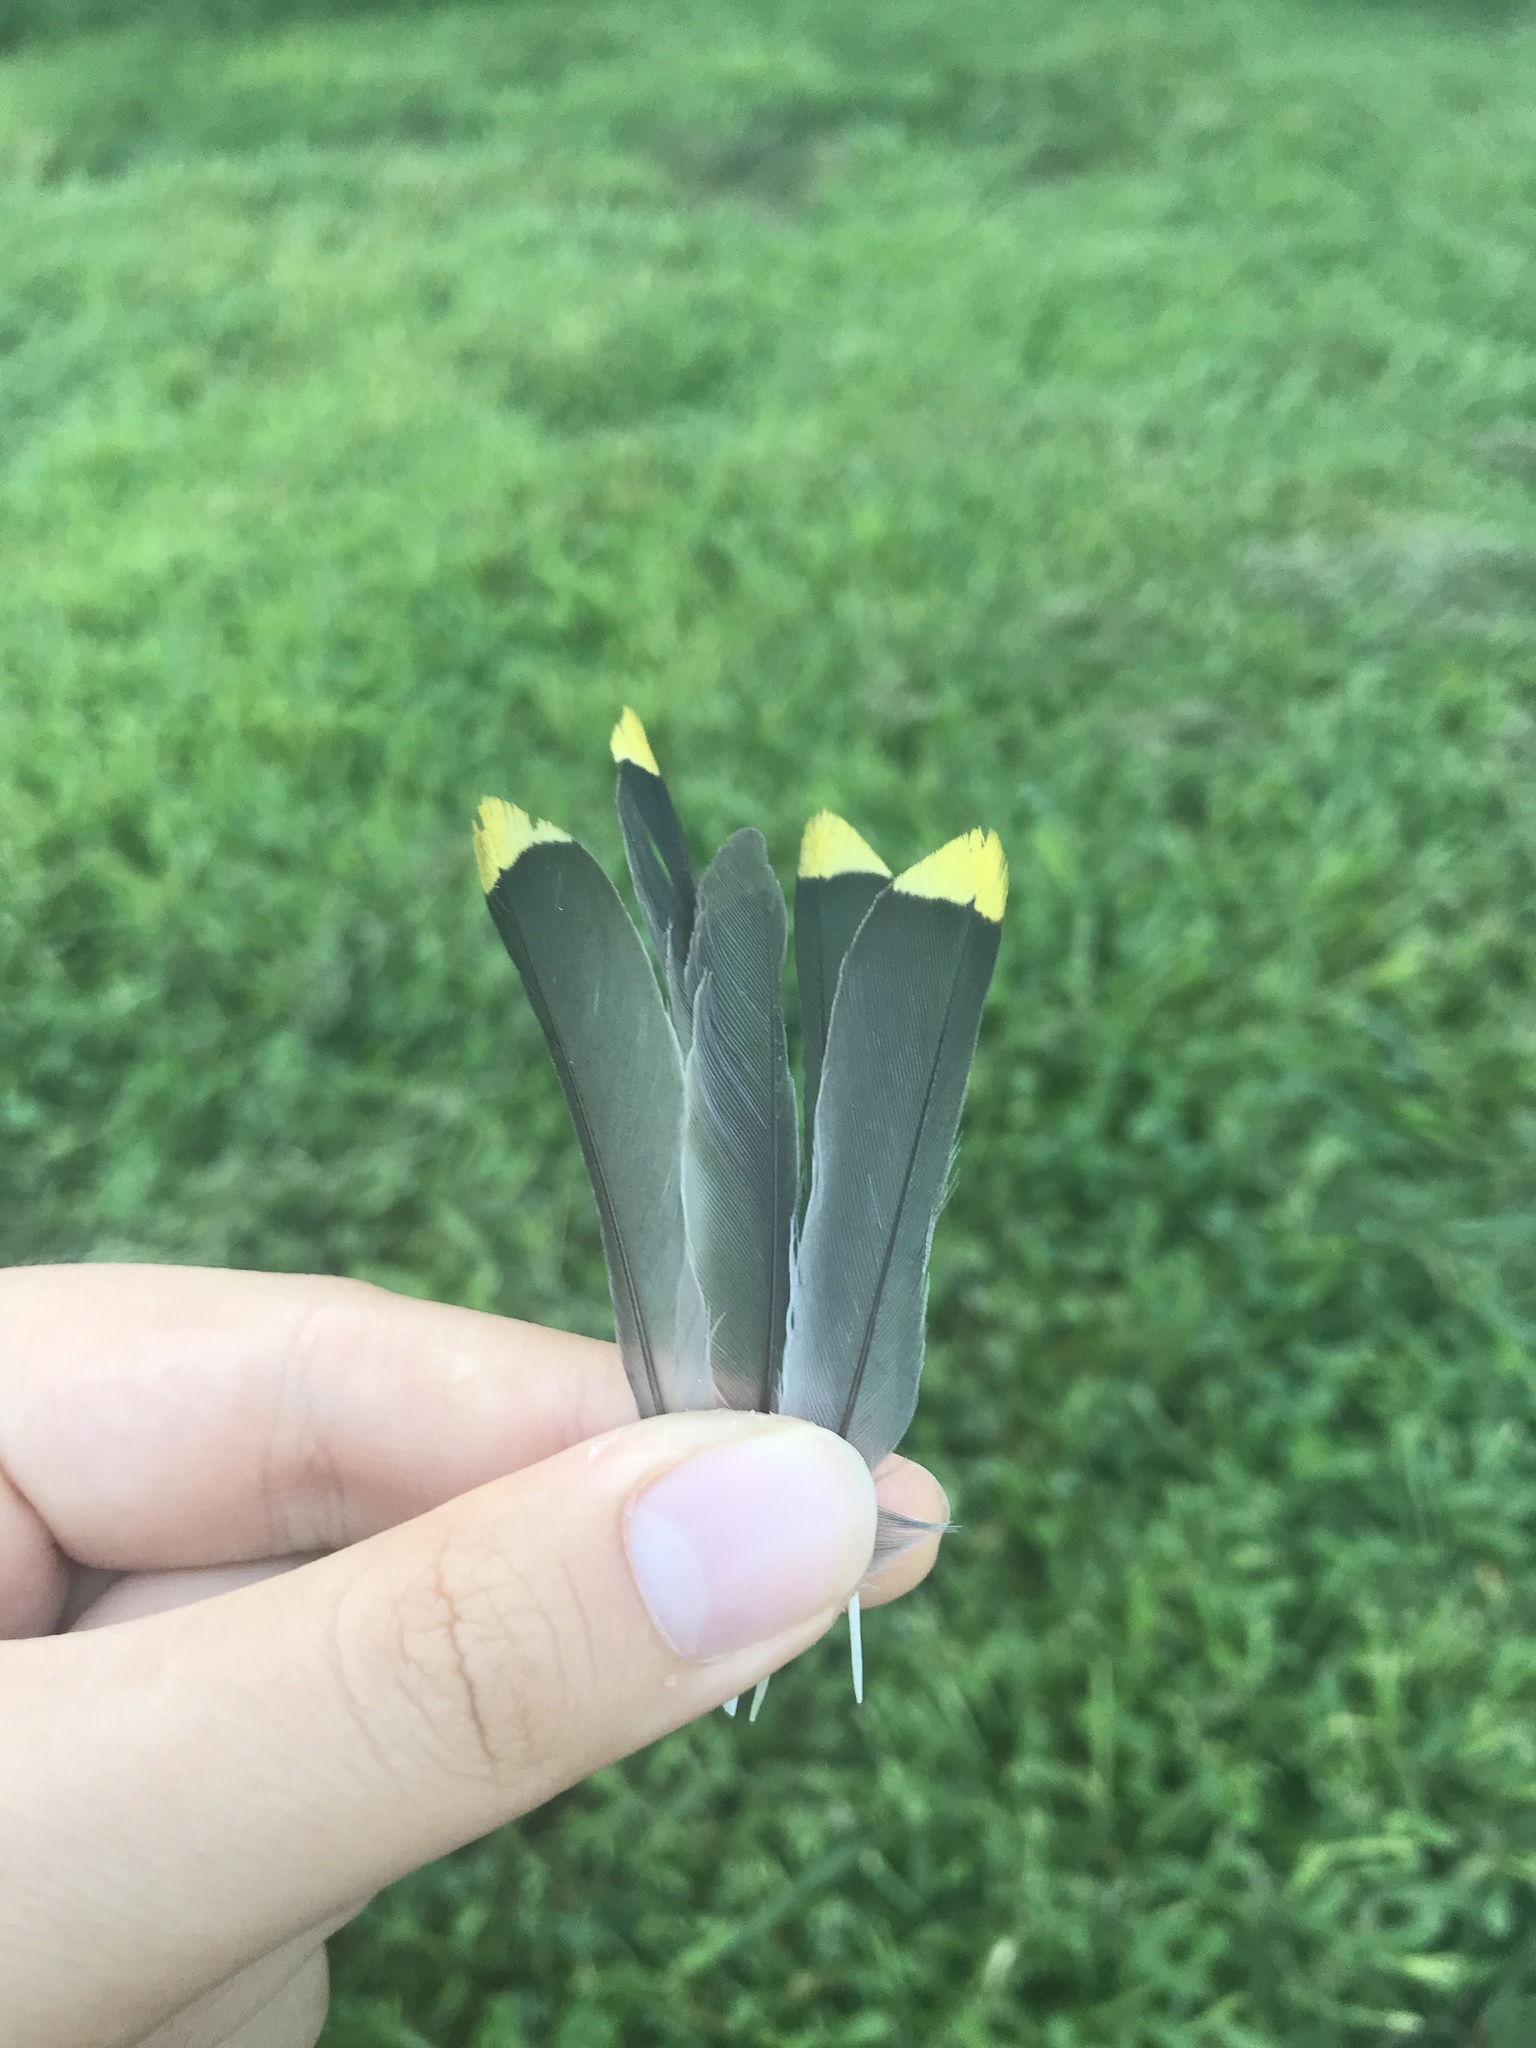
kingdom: Animalia
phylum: Chordata
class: Aves
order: Passeriformes
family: Bombycillidae
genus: Bombycilla
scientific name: Bombycilla cedrorum
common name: Cedar waxwing
